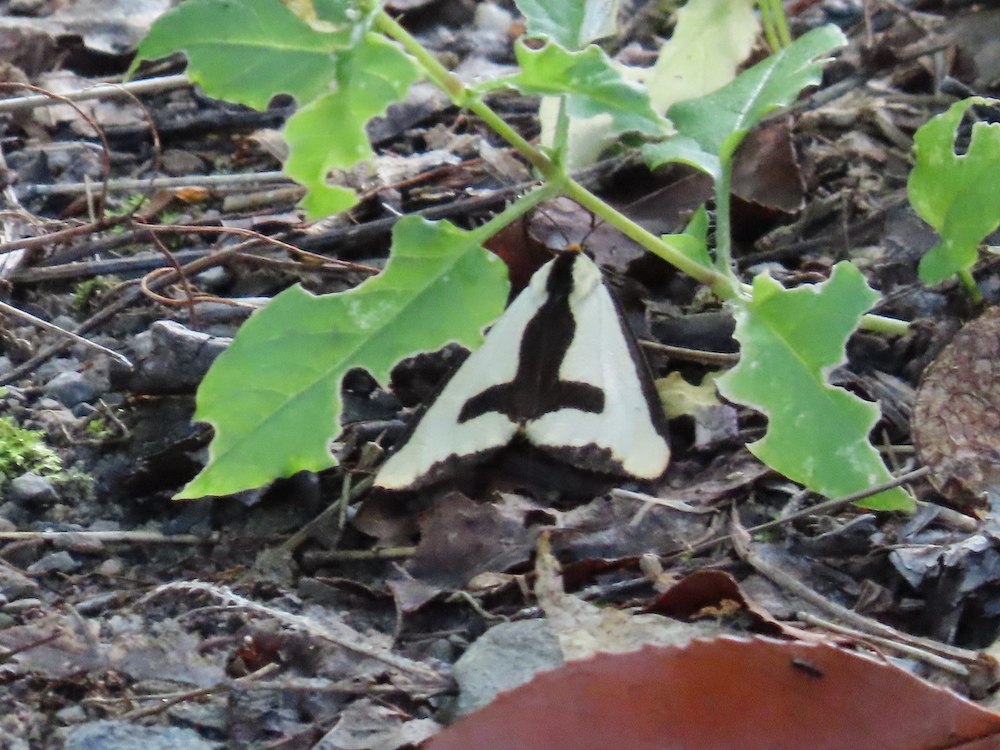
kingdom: Animalia
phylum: Arthropoda
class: Insecta
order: Lepidoptera
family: Erebidae
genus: Haploa
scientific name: Haploa clymene
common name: Clymene moth
